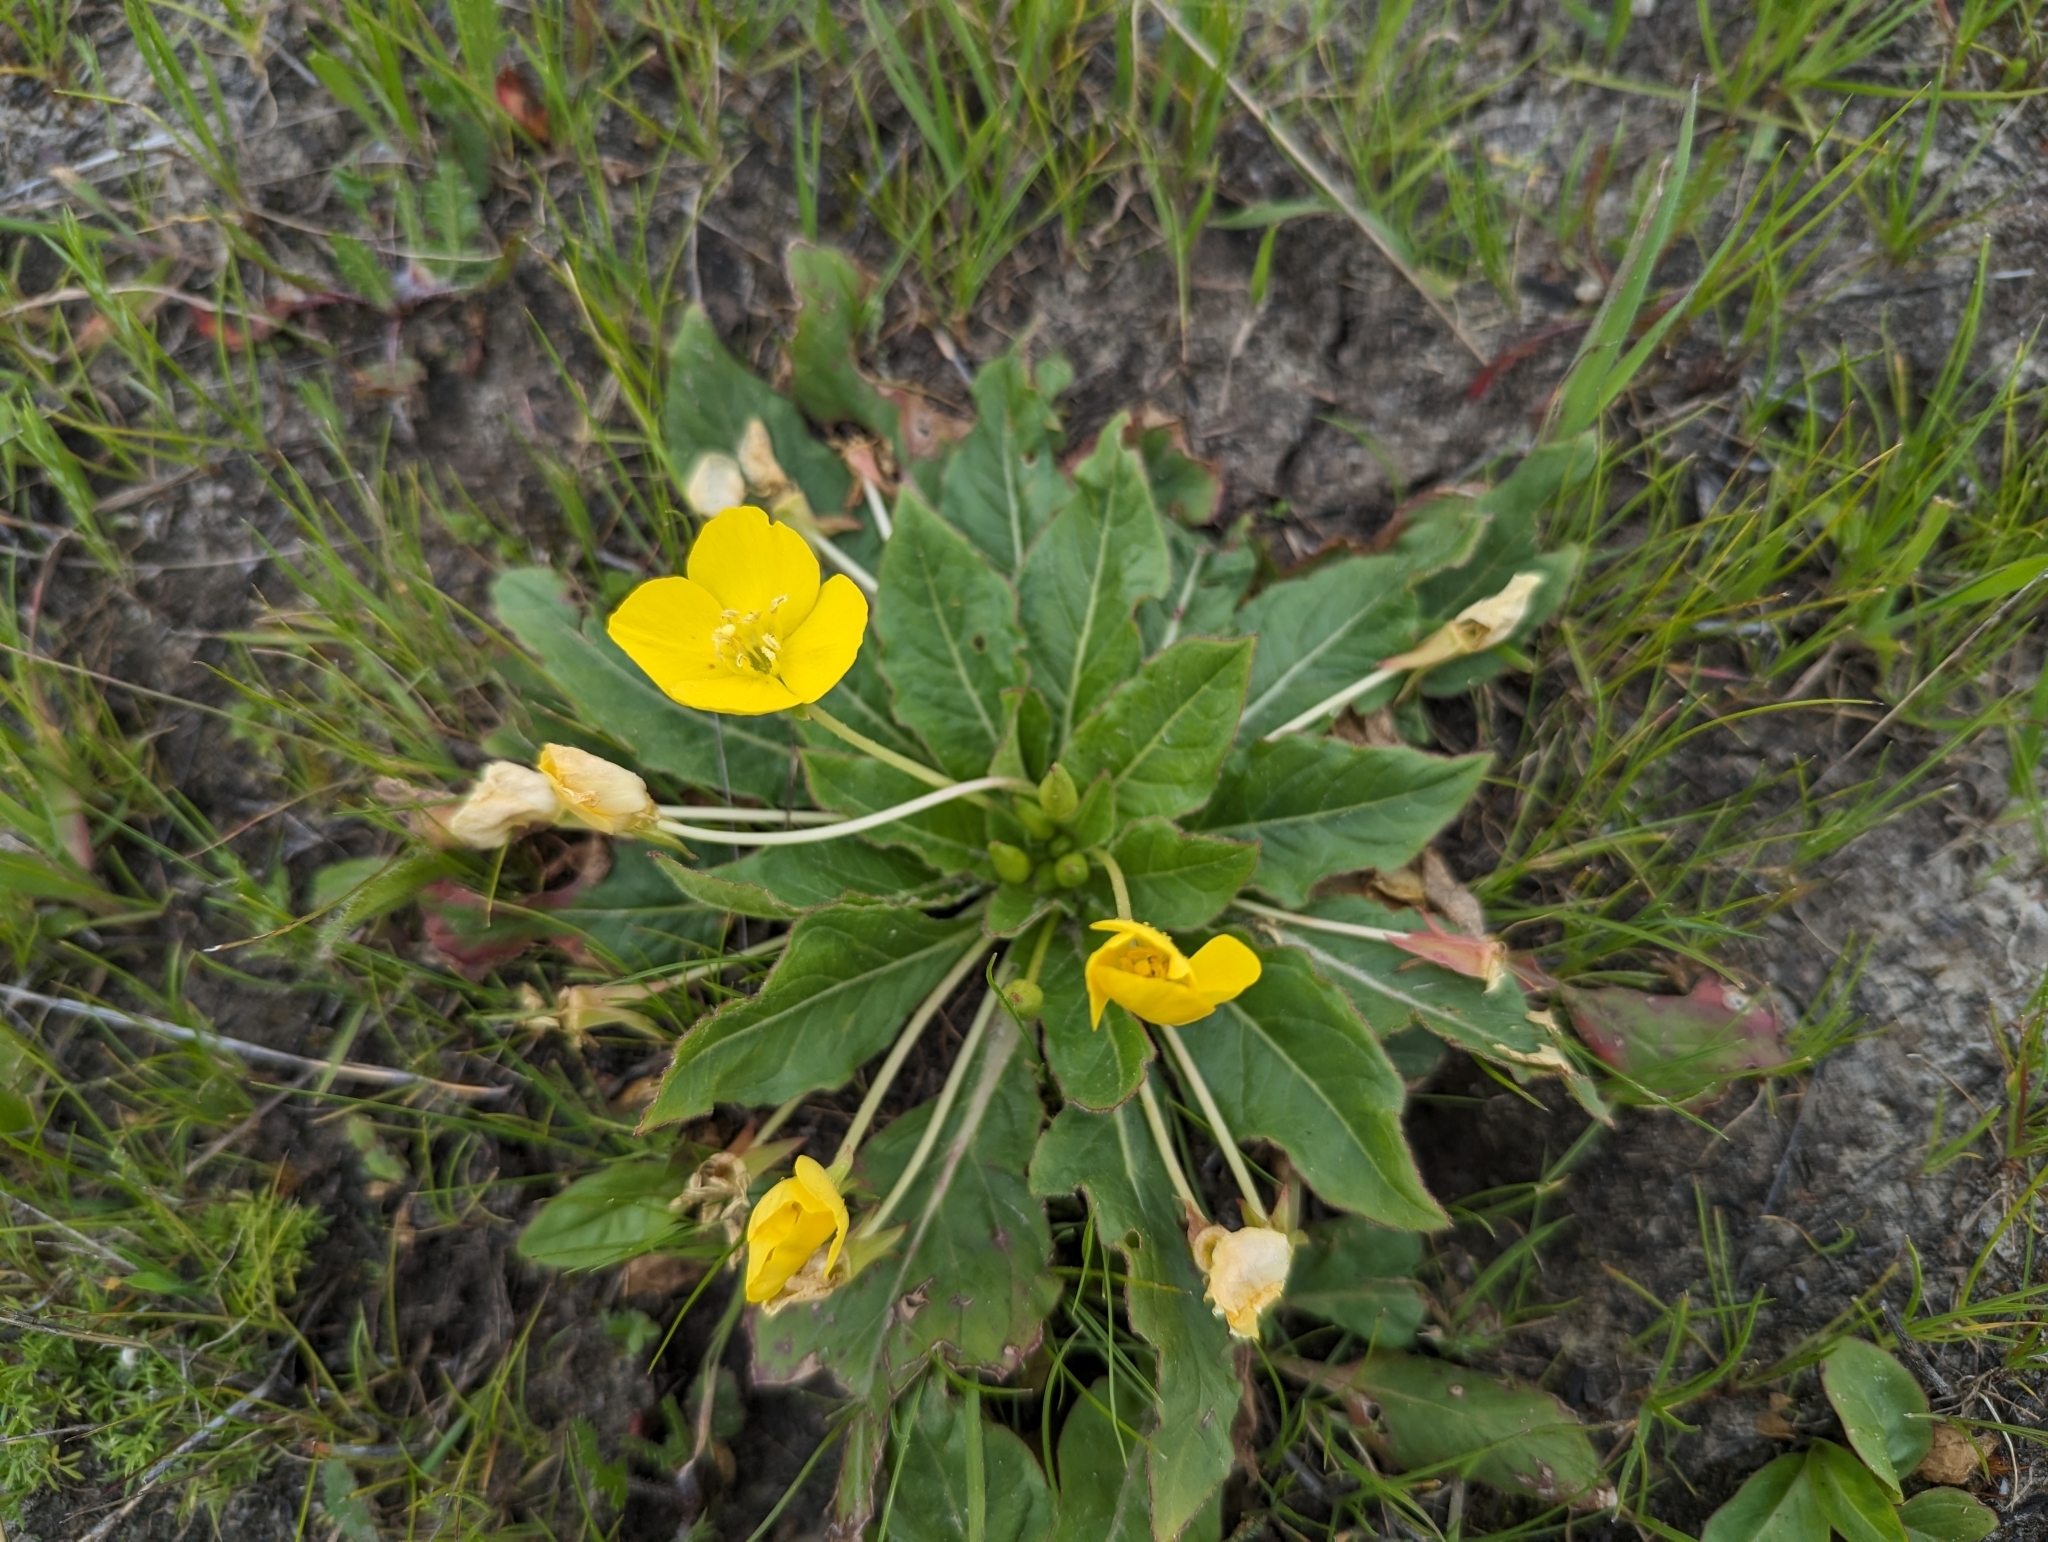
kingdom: Plantae
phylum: Tracheophyta
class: Magnoliopsida
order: Myrtales
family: Onagraceae
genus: Taraxia
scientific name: Taraxia ovata
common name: Goldeneggs
